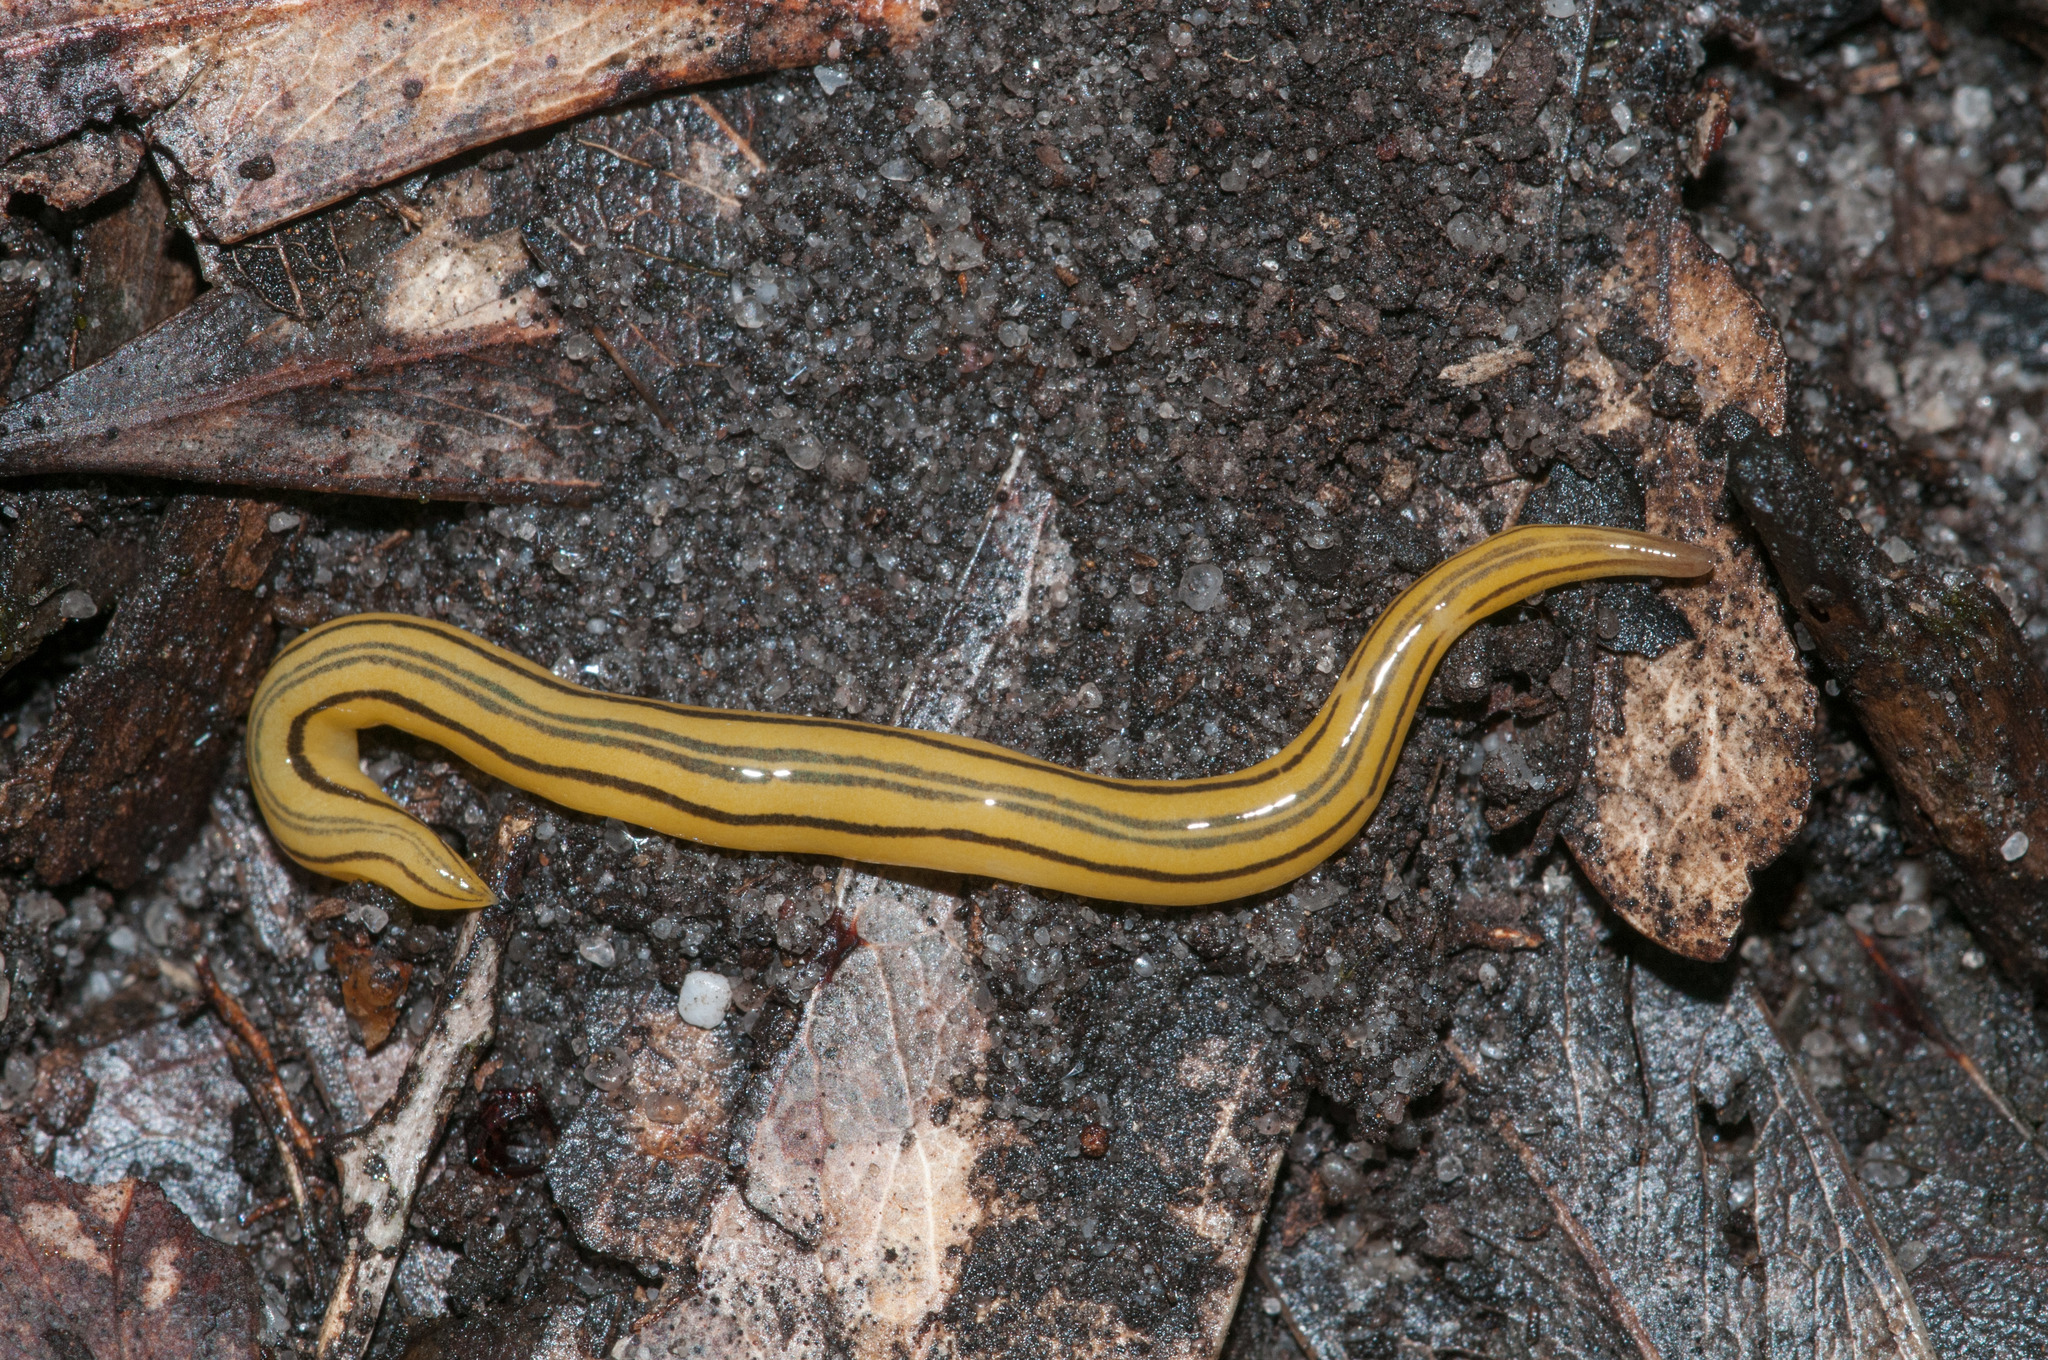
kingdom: Animalia
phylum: Platyhelminthes
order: Tricladida
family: Geoplanidae
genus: Caenoplana
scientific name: Caenoplana hoggii
